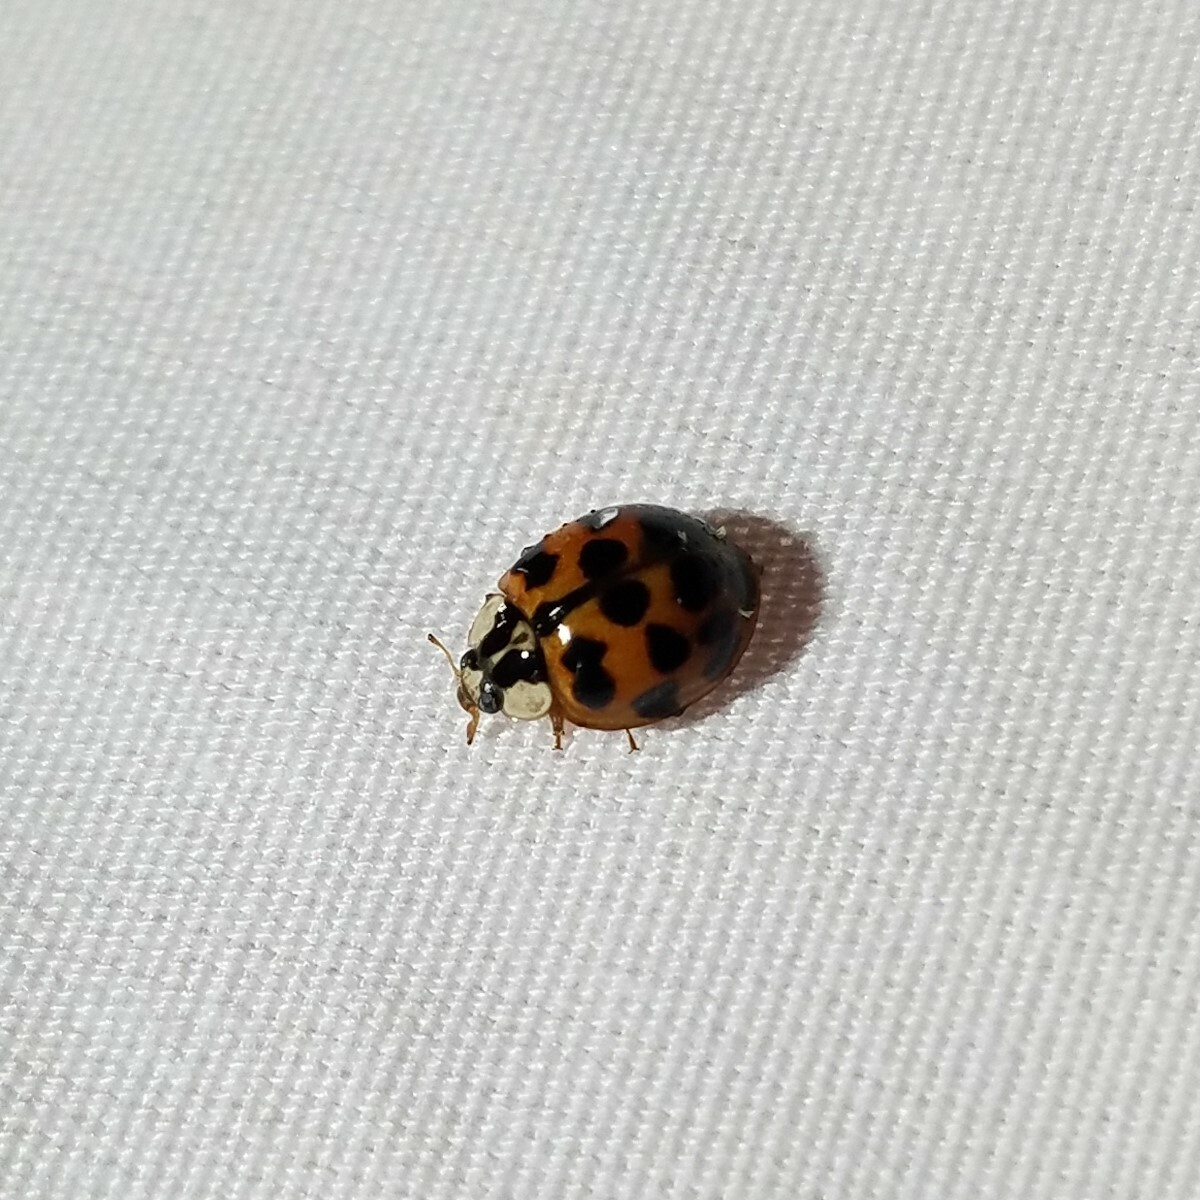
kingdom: Animalia
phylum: Arthropoda
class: Insecta
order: Coleoptera
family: Coccinellidae
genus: Harmonia
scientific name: Harmonia axyridis
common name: Harlequin ladybird
